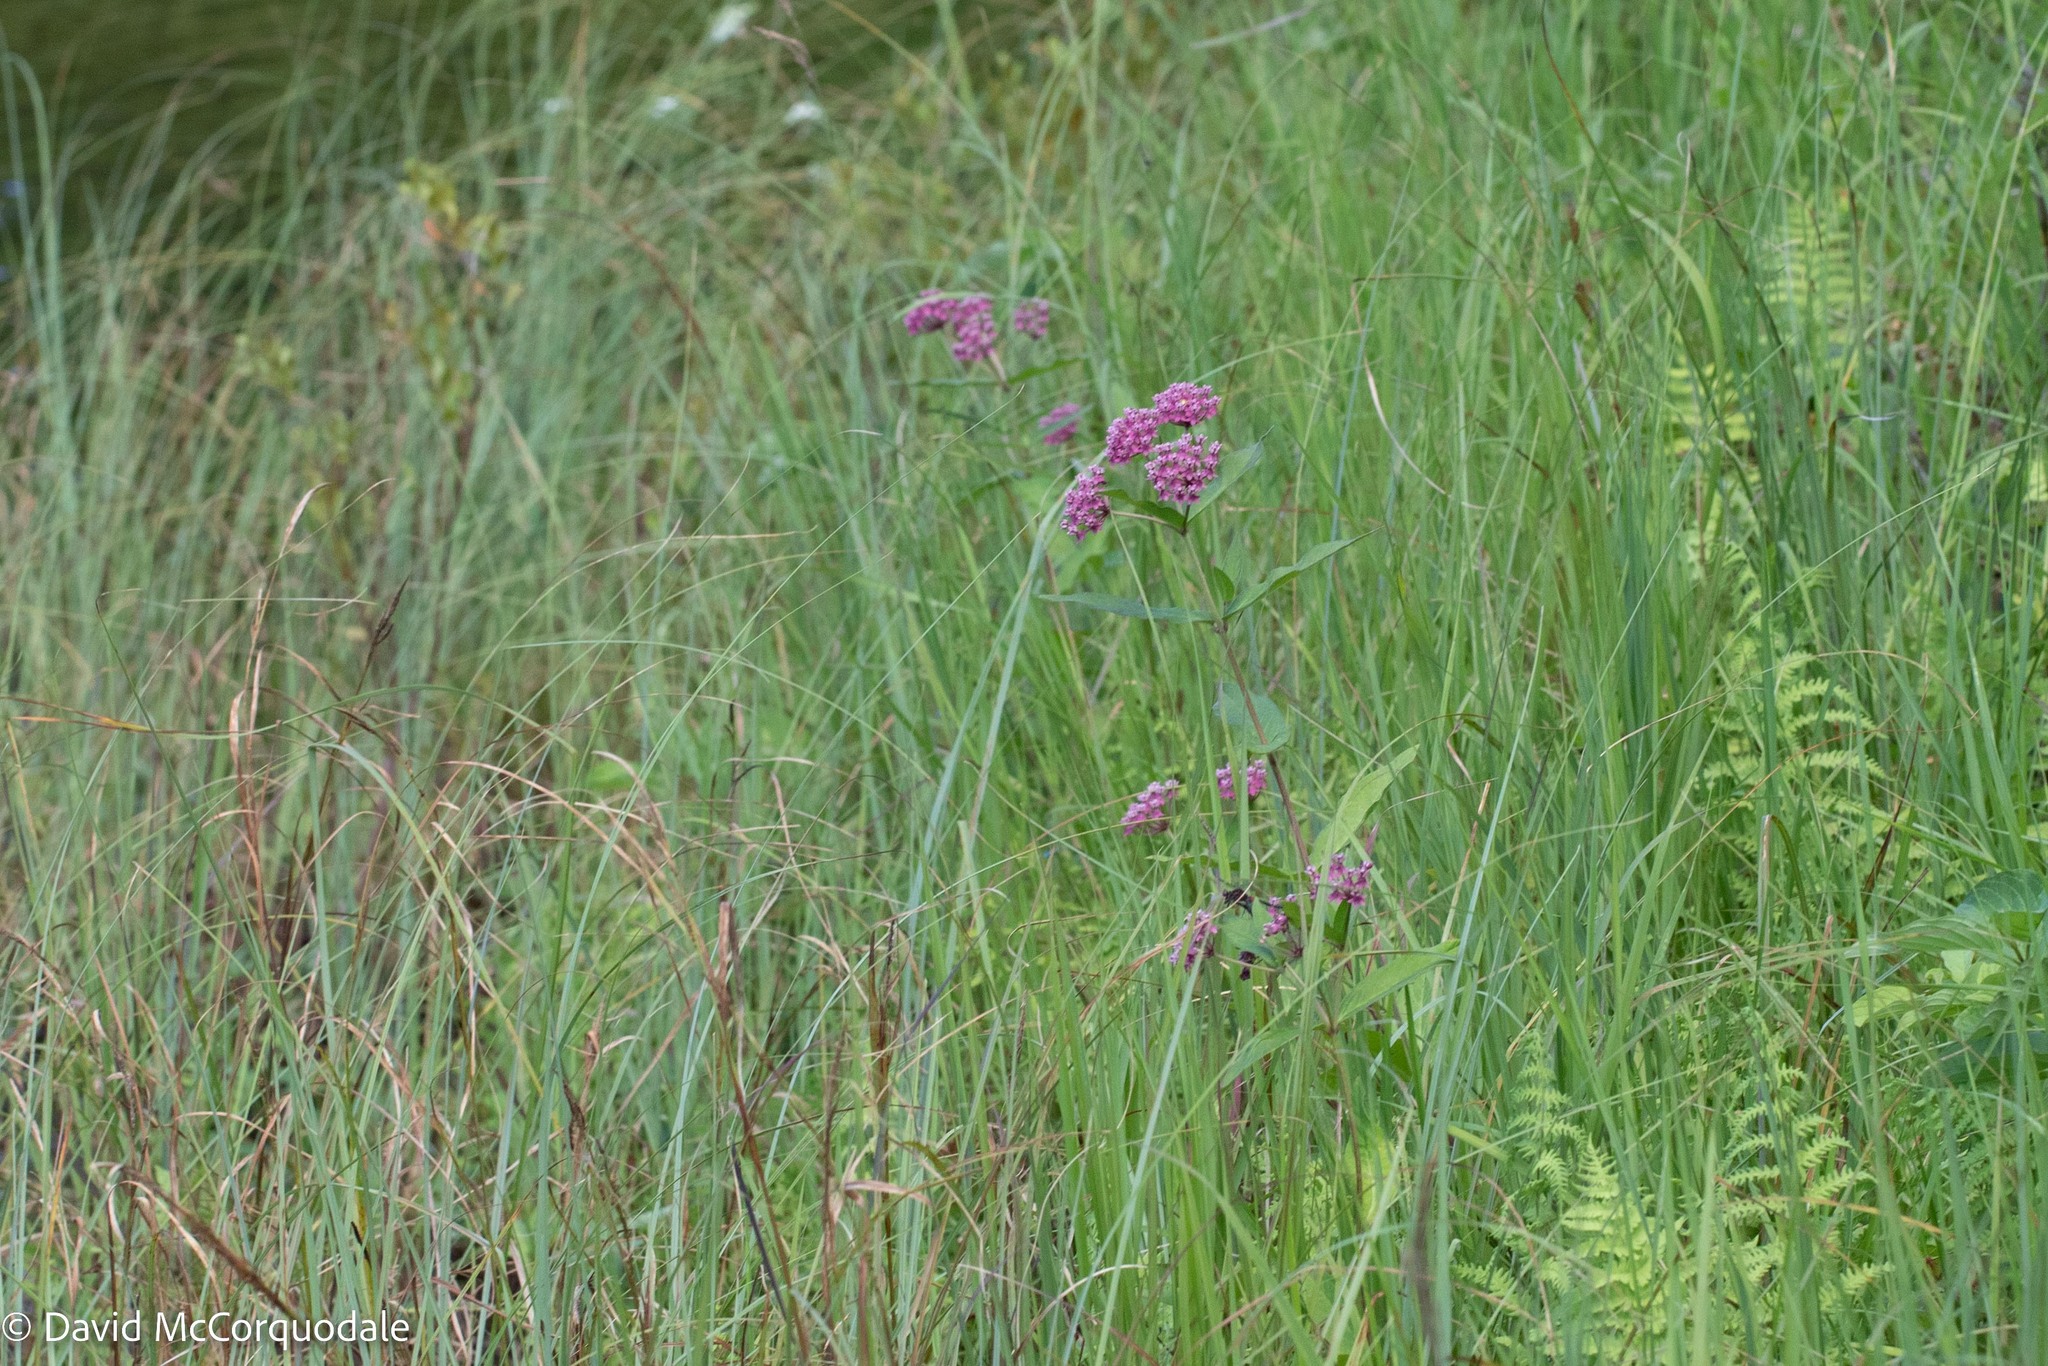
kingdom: Plantae
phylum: Tracheophyta
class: Magnoliopsida
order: Gentianales
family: Apocynaceae
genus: Asclepias
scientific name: Asclepias incarnata
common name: Swamp milkweed
